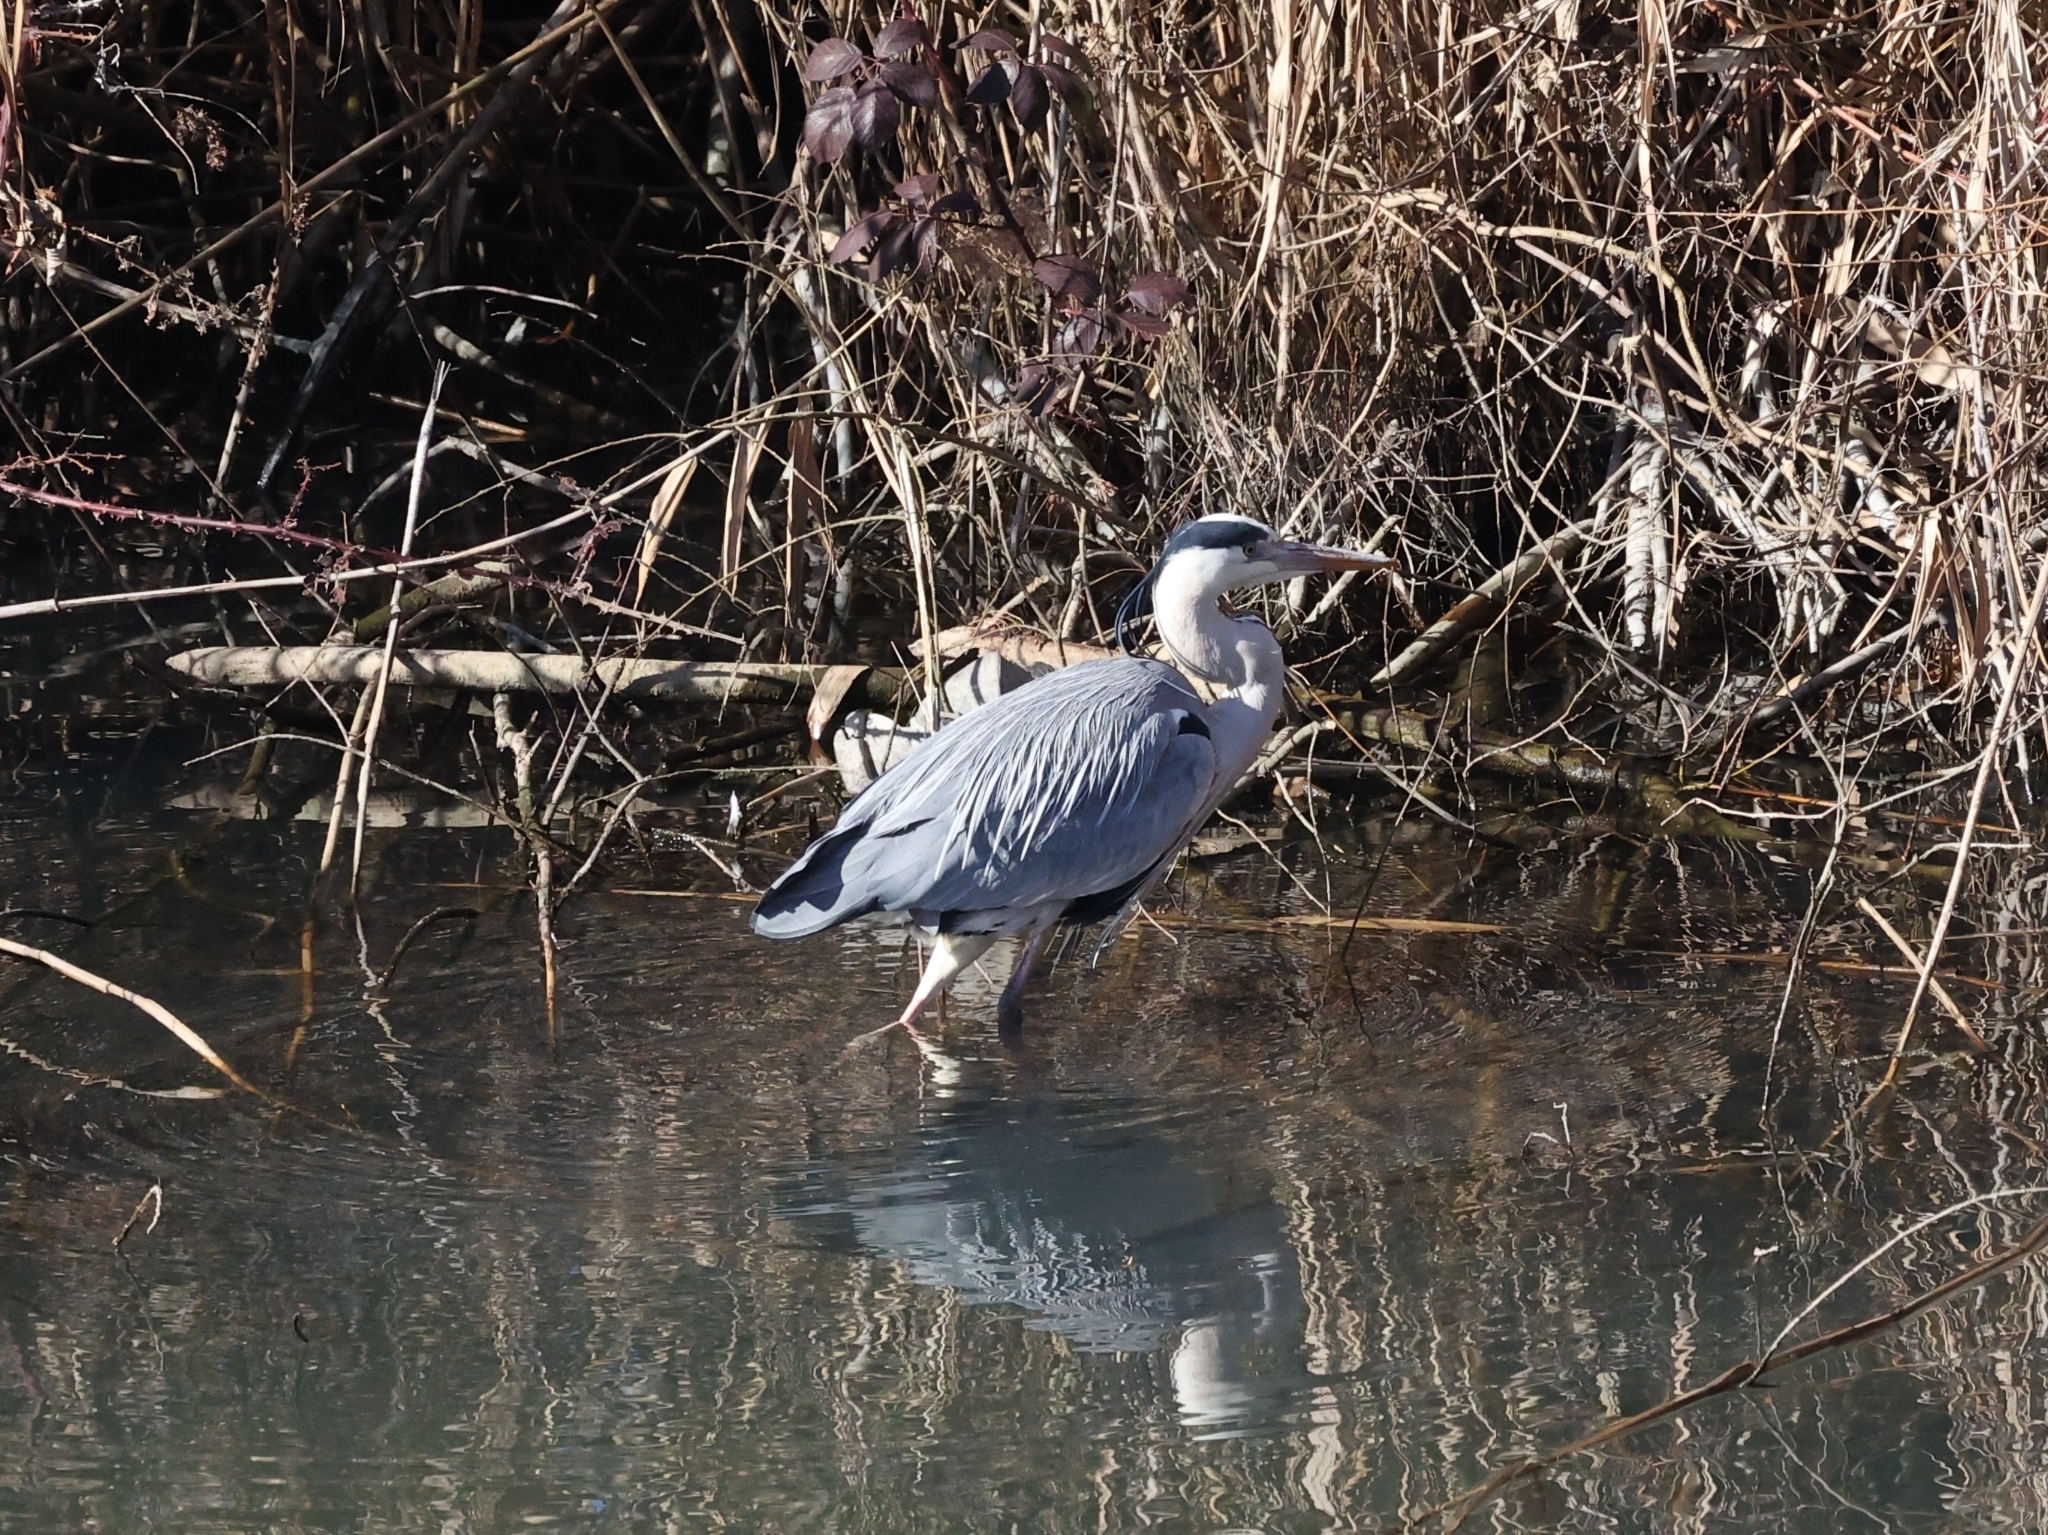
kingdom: Animalia
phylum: Chordata
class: Aves
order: Pelecaniformes
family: Ardeidae
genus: Ardea
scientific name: Ardea cinerea
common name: Grey heron
